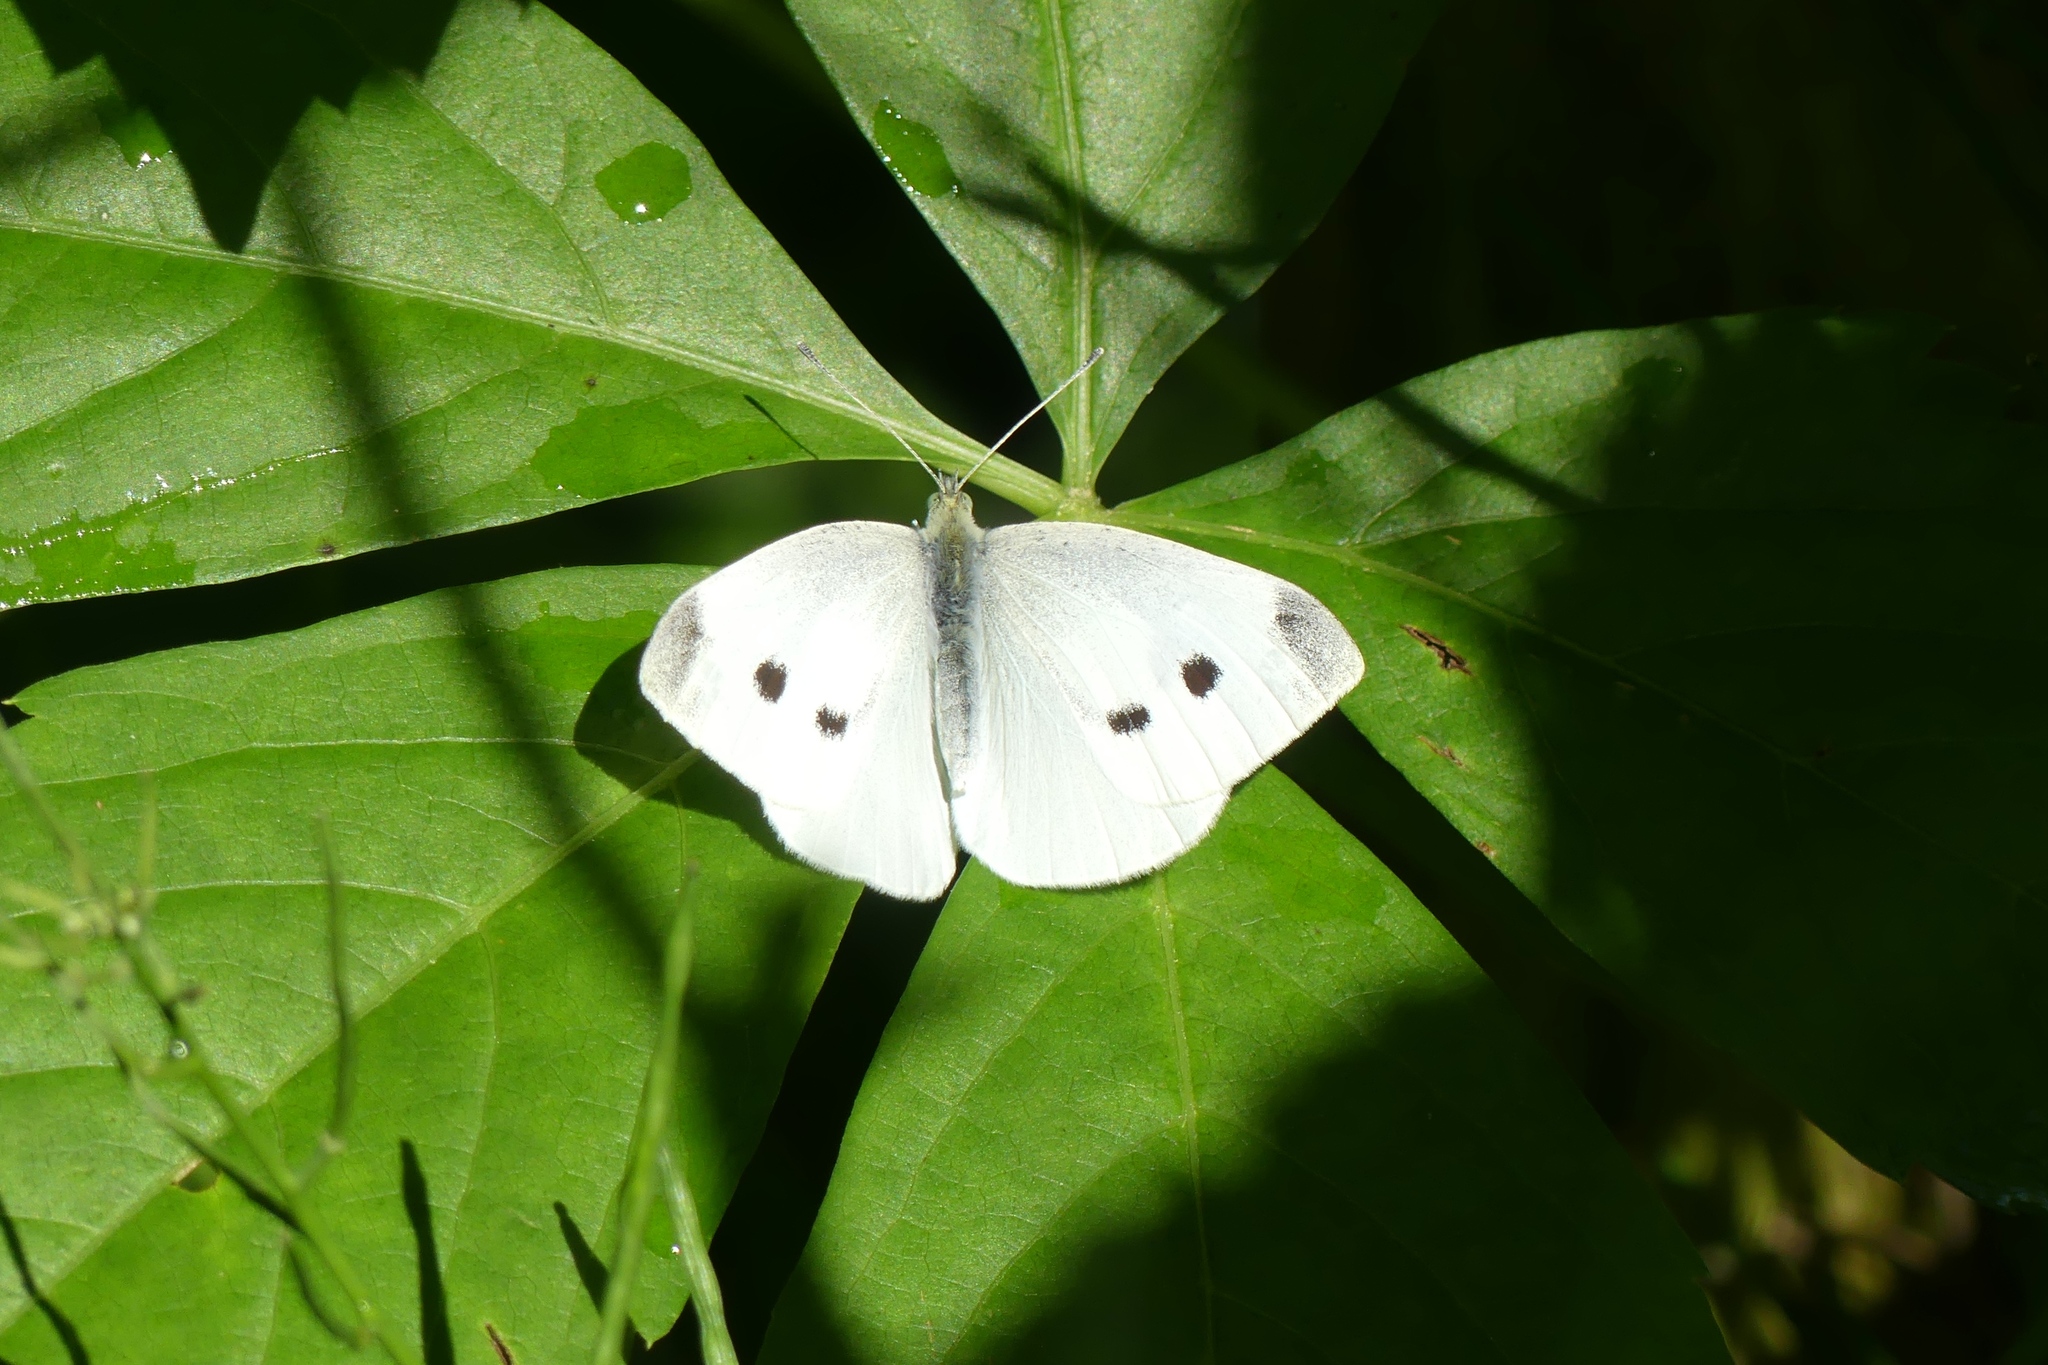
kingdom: Animalia
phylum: Arthropoda
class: Insecta
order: Lepidoptera
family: Pieridae
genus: Pieris
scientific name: Pieris rapae
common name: Small white
